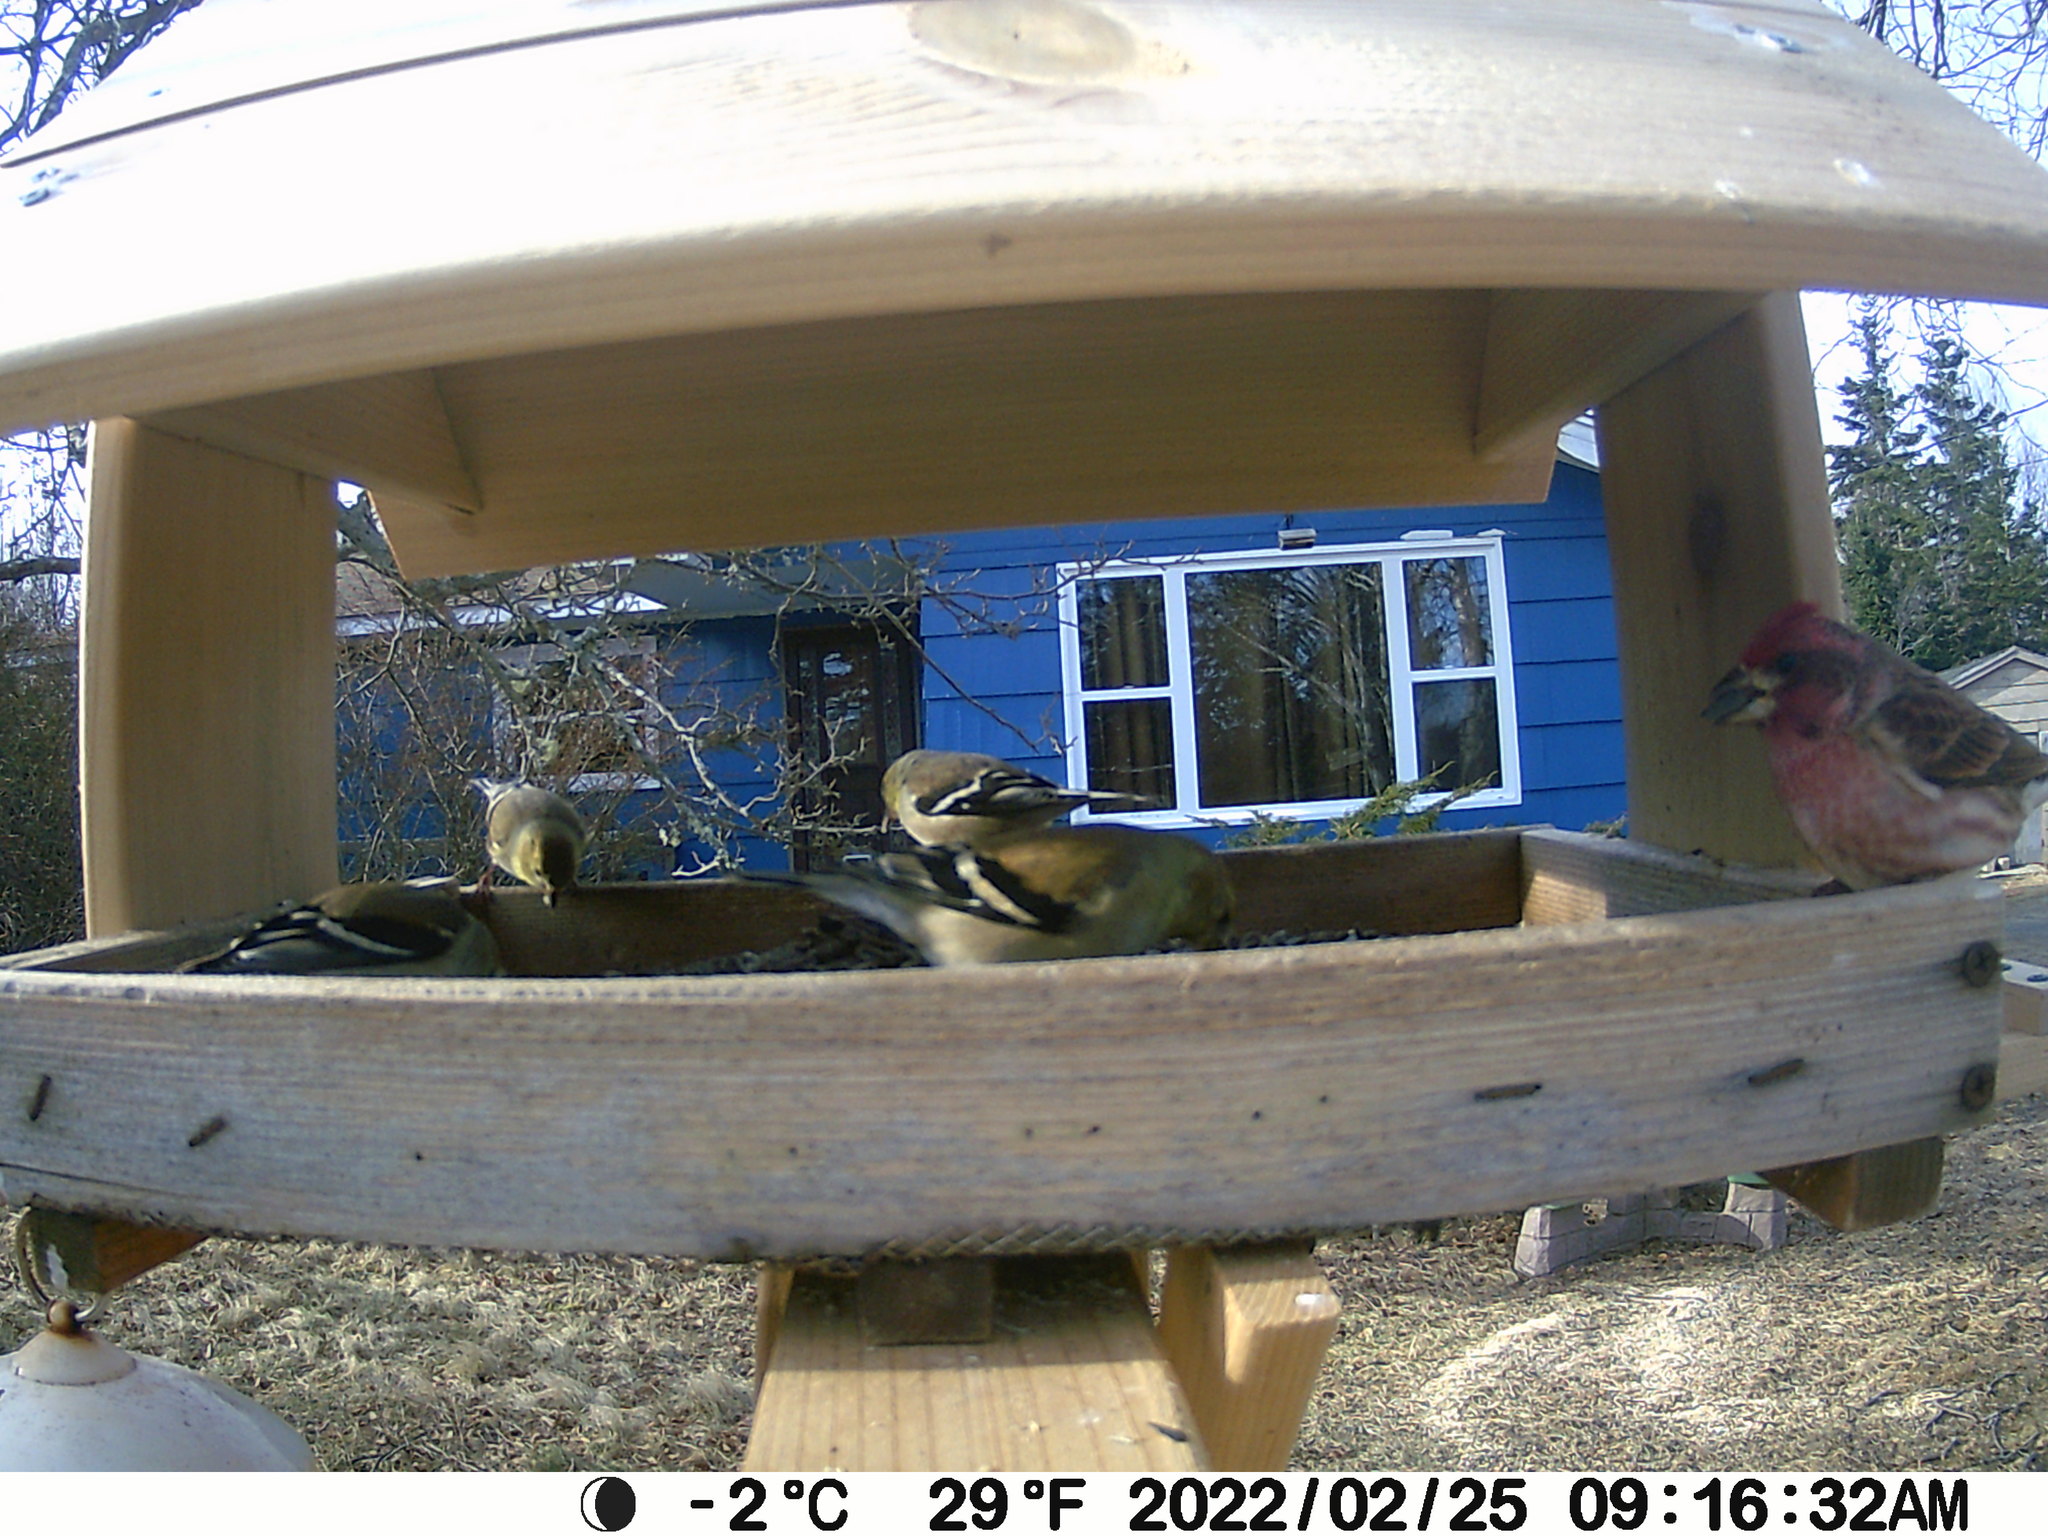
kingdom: Animalia
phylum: Chordata
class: Aves
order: Passeriformes
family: Fringillidae
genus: Haemorhous
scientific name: Haemorhous purpureus
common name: Purple finch
